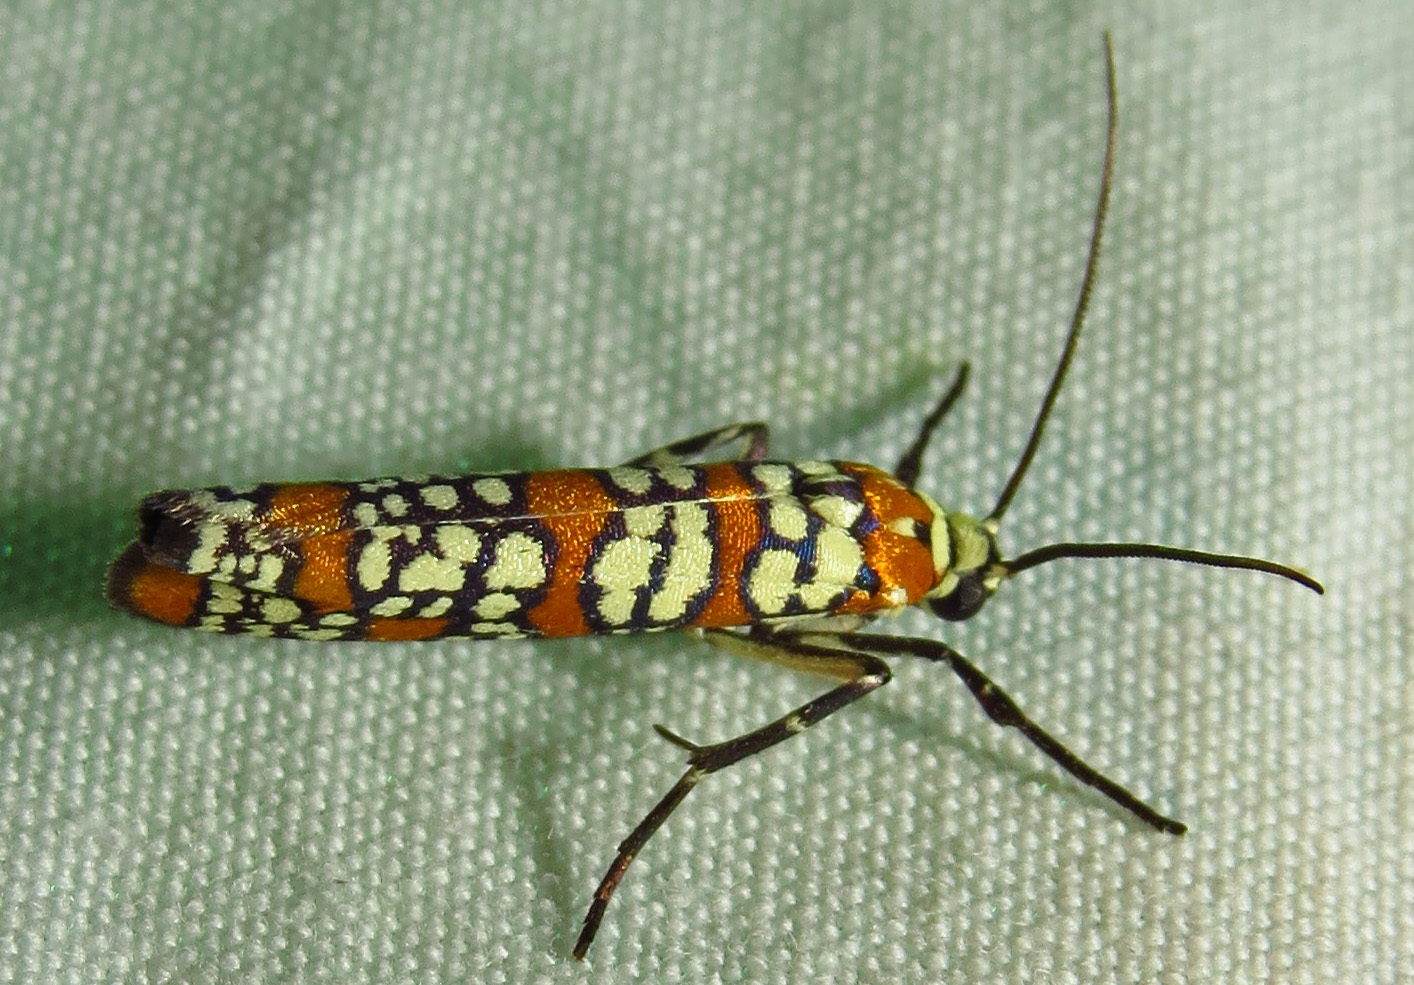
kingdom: Animalia
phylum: Arthropoda
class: Insecta
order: Lepidoptera
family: Attevidae
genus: Atteva
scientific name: Atteva punctella
